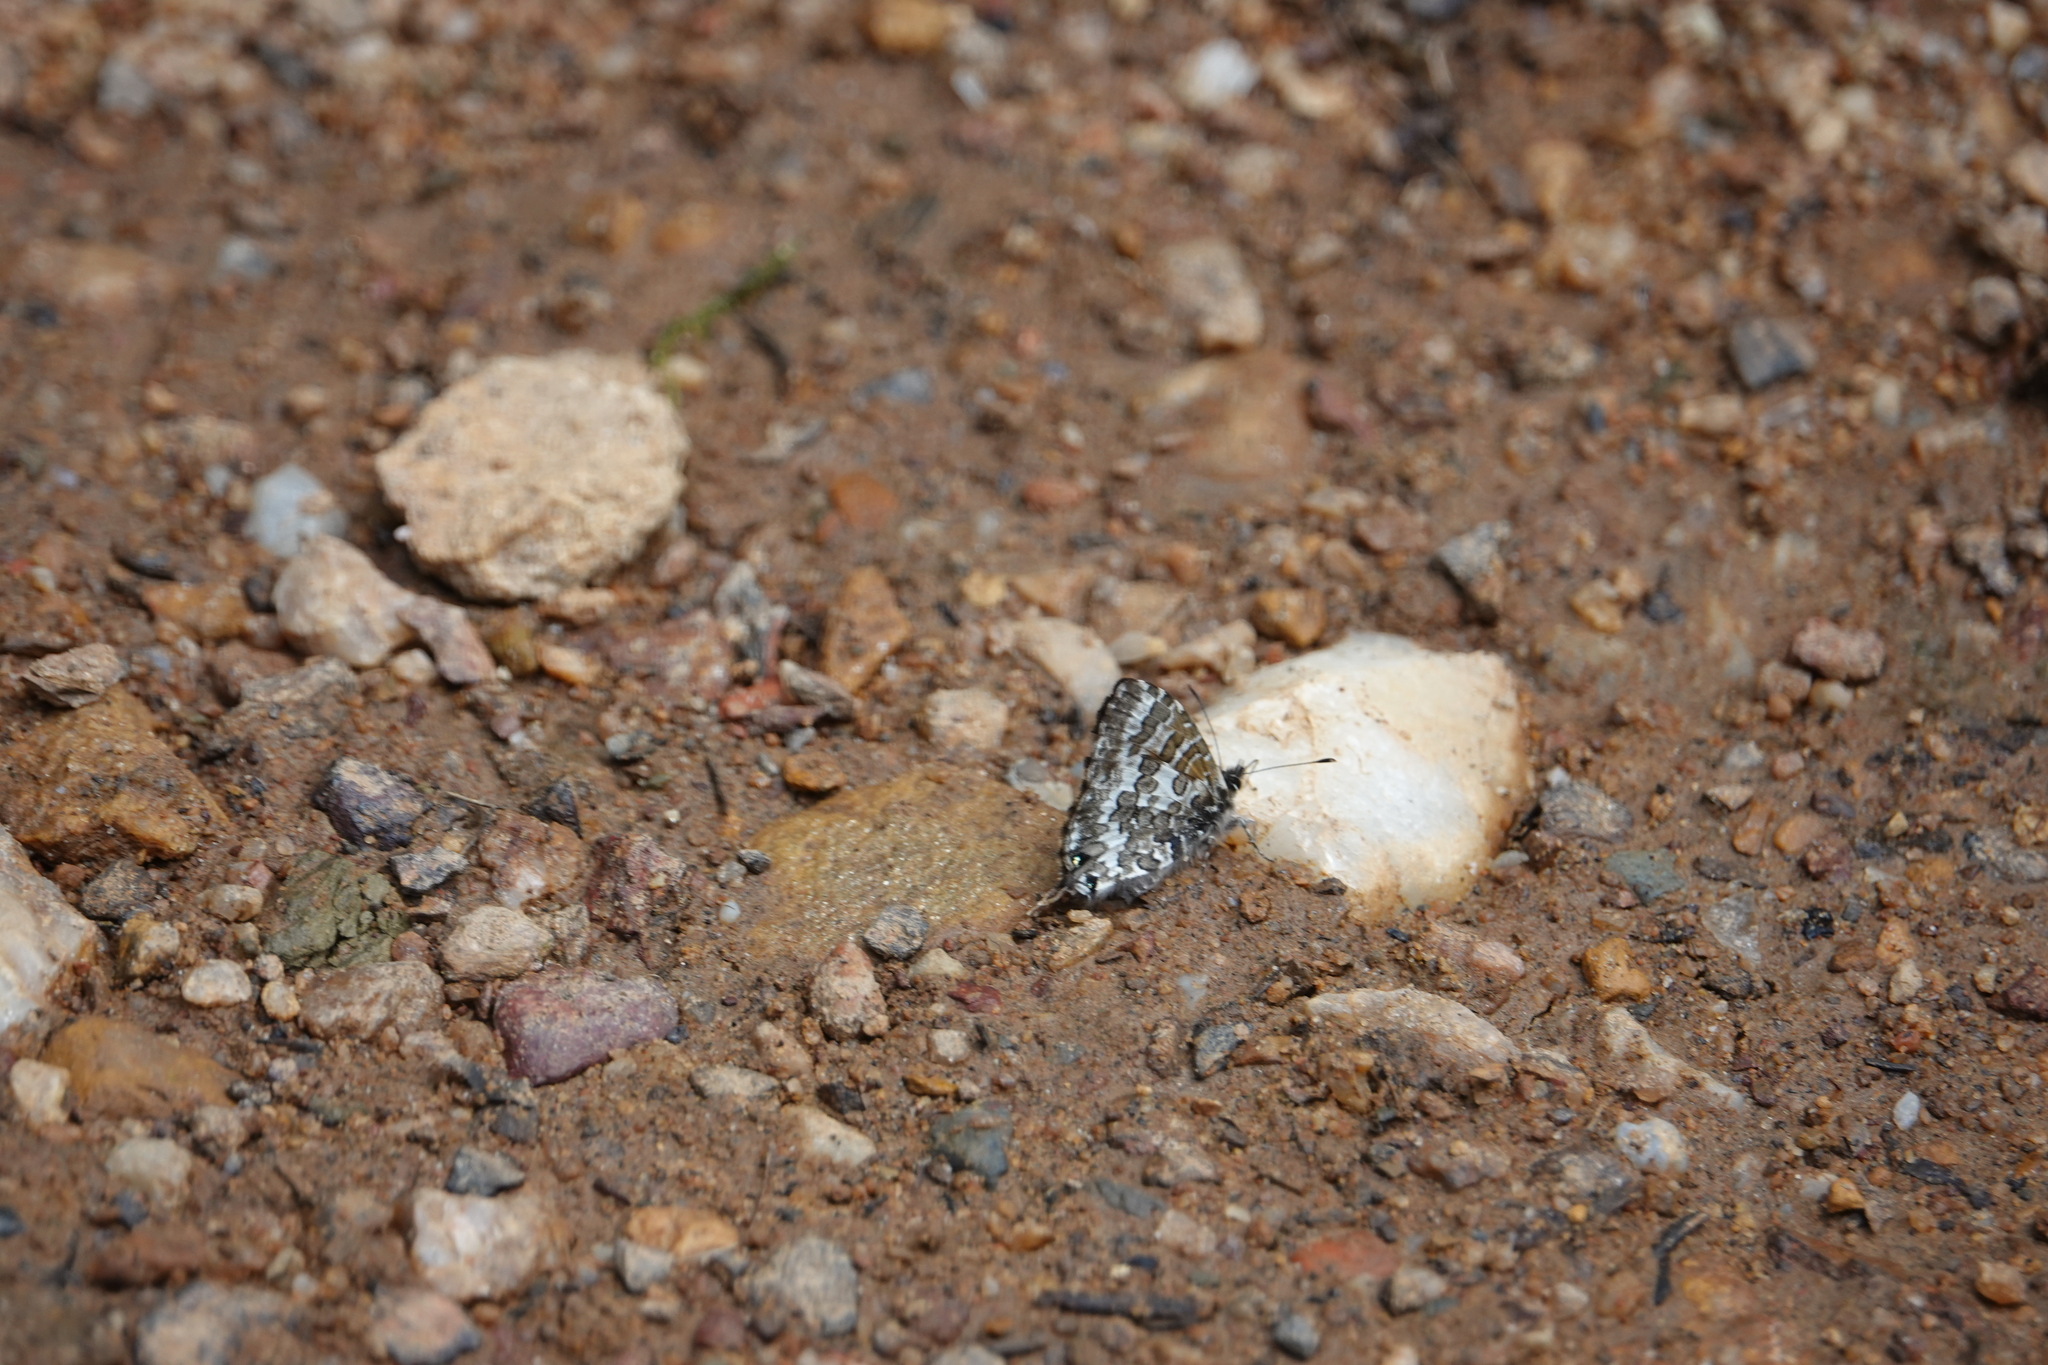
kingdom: Animalia
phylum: Arthropoda
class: Insecta
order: Lepidoptera
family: Lycaenidae
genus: Cupido
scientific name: Cupido nubifer
